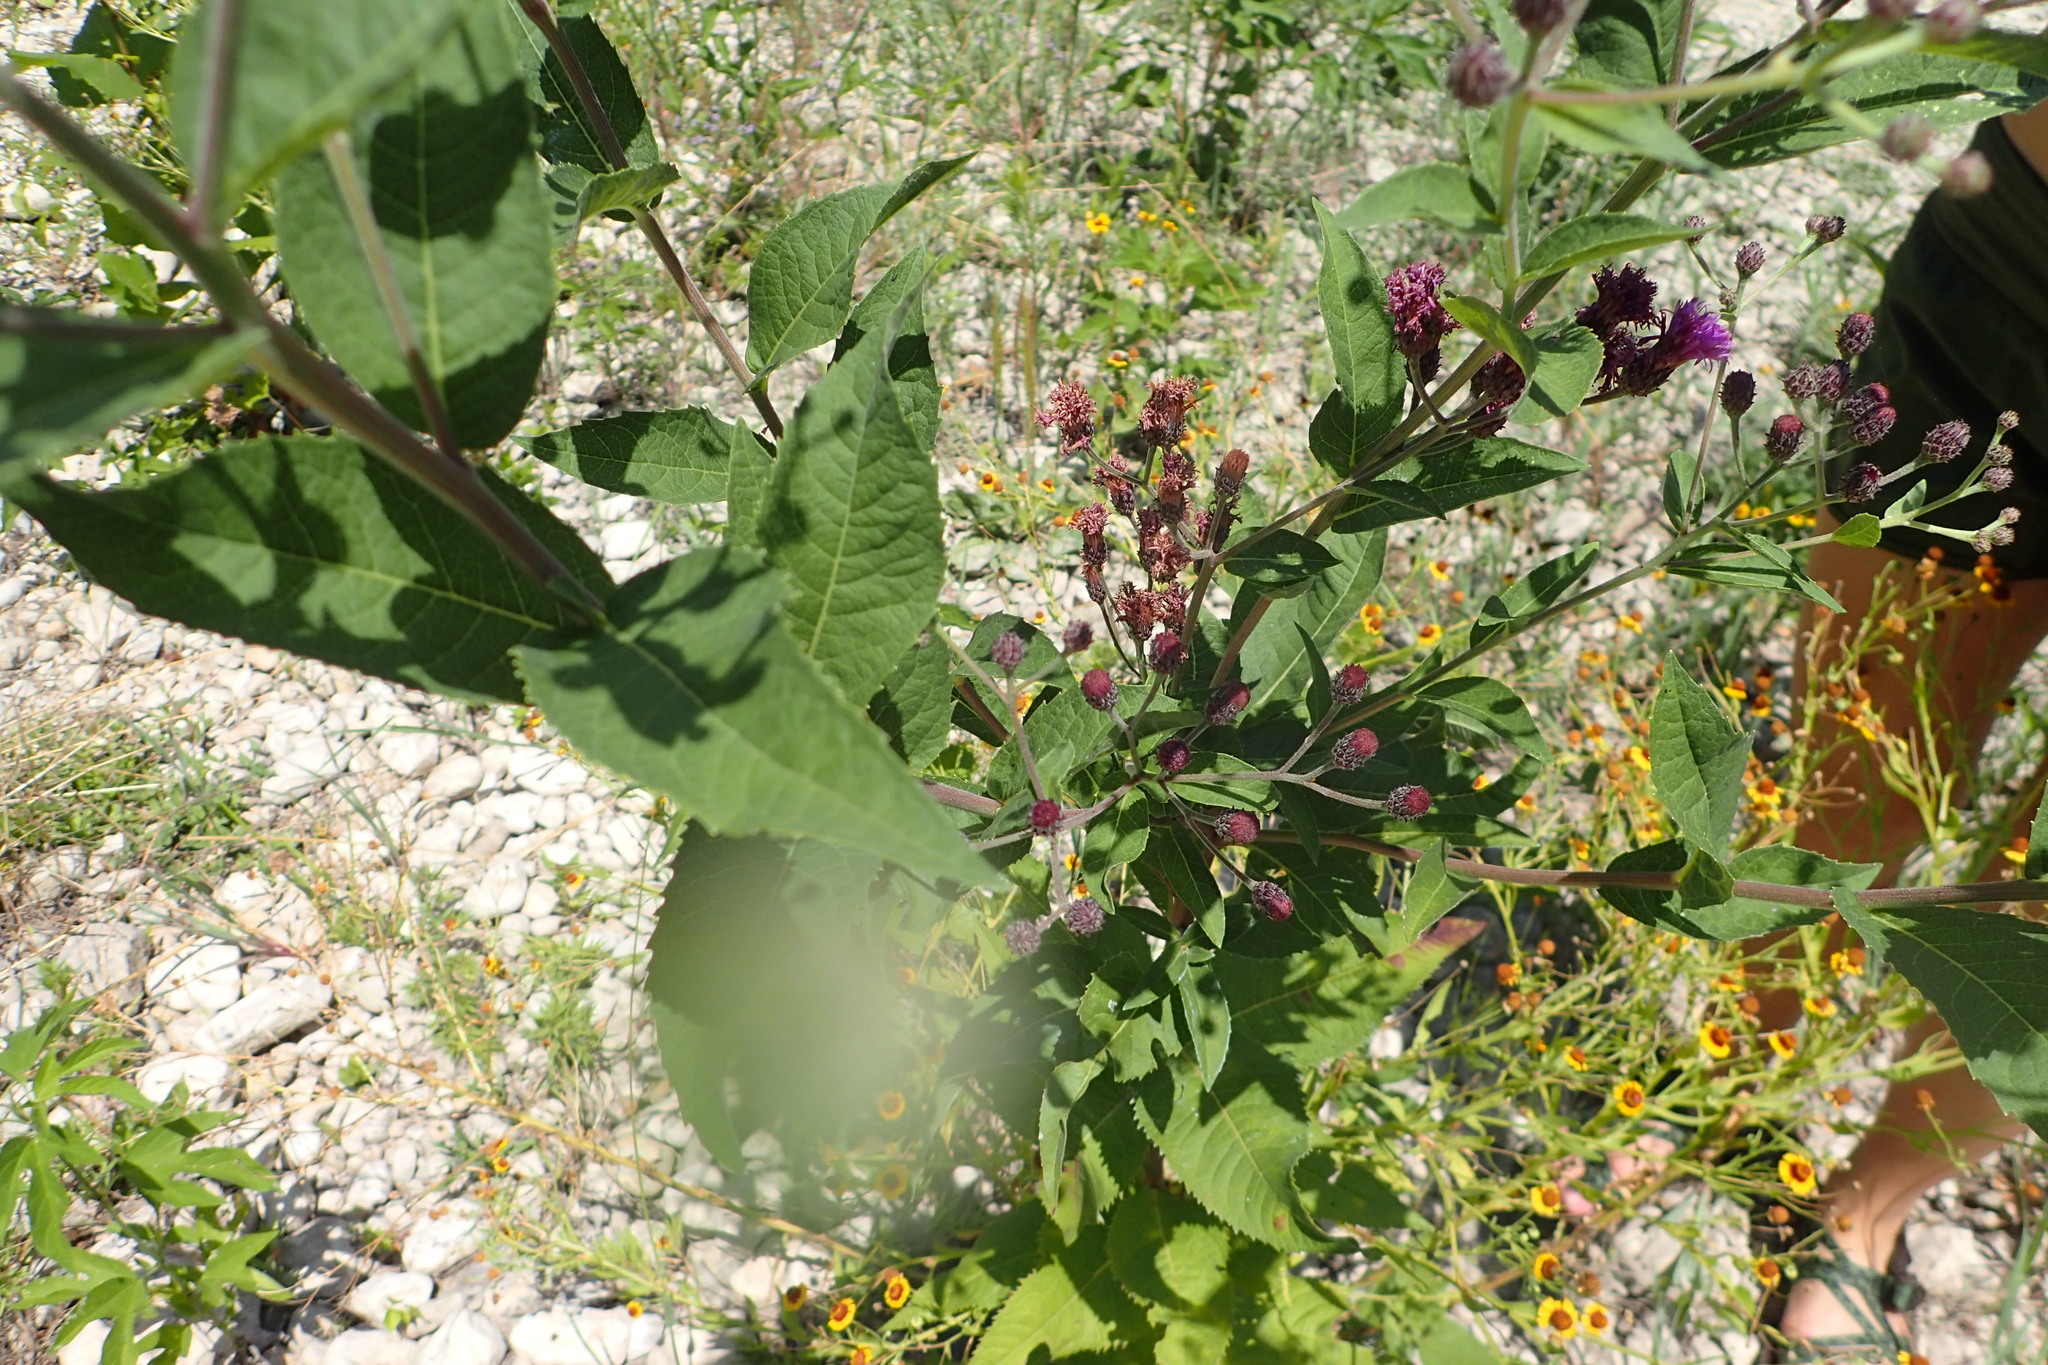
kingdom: Plantae
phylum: Tracheophyta
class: Magnoliopsida
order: Asterales
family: Asteraceae
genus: Vernonia
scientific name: Vernonia baldwinii
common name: Western ironweed
